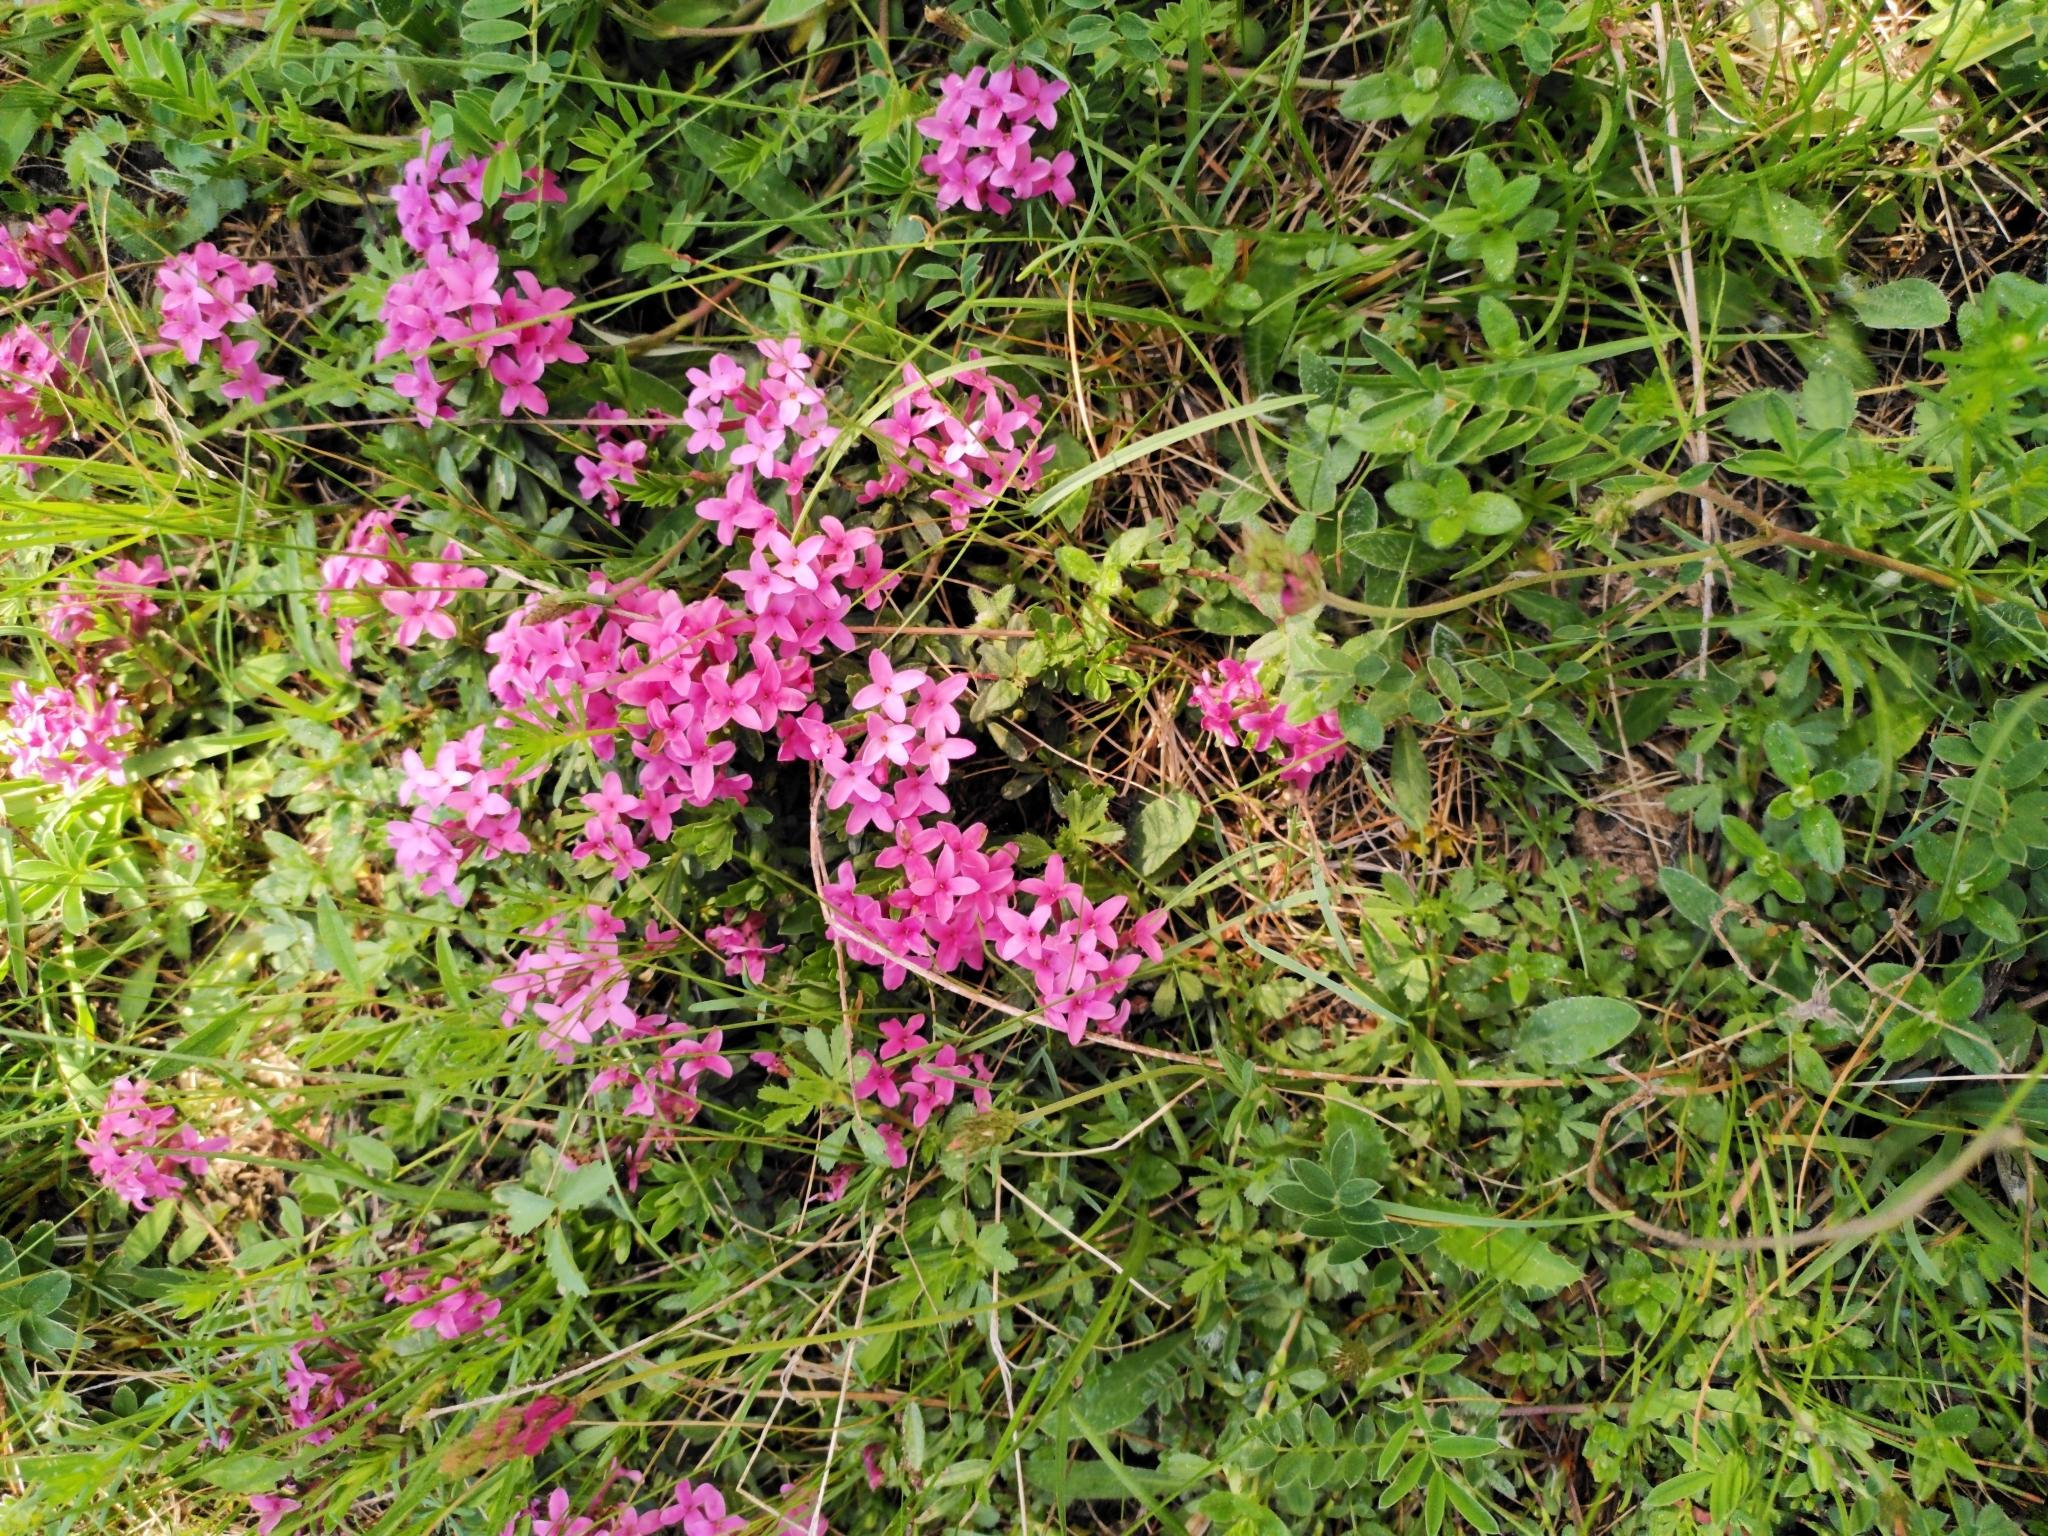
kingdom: Plantae
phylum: Tracheophyta
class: Magnoliopsida
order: Malvales
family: Thymelaeaceae
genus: Daphne
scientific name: Daphne cneorum
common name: Garland-flower
